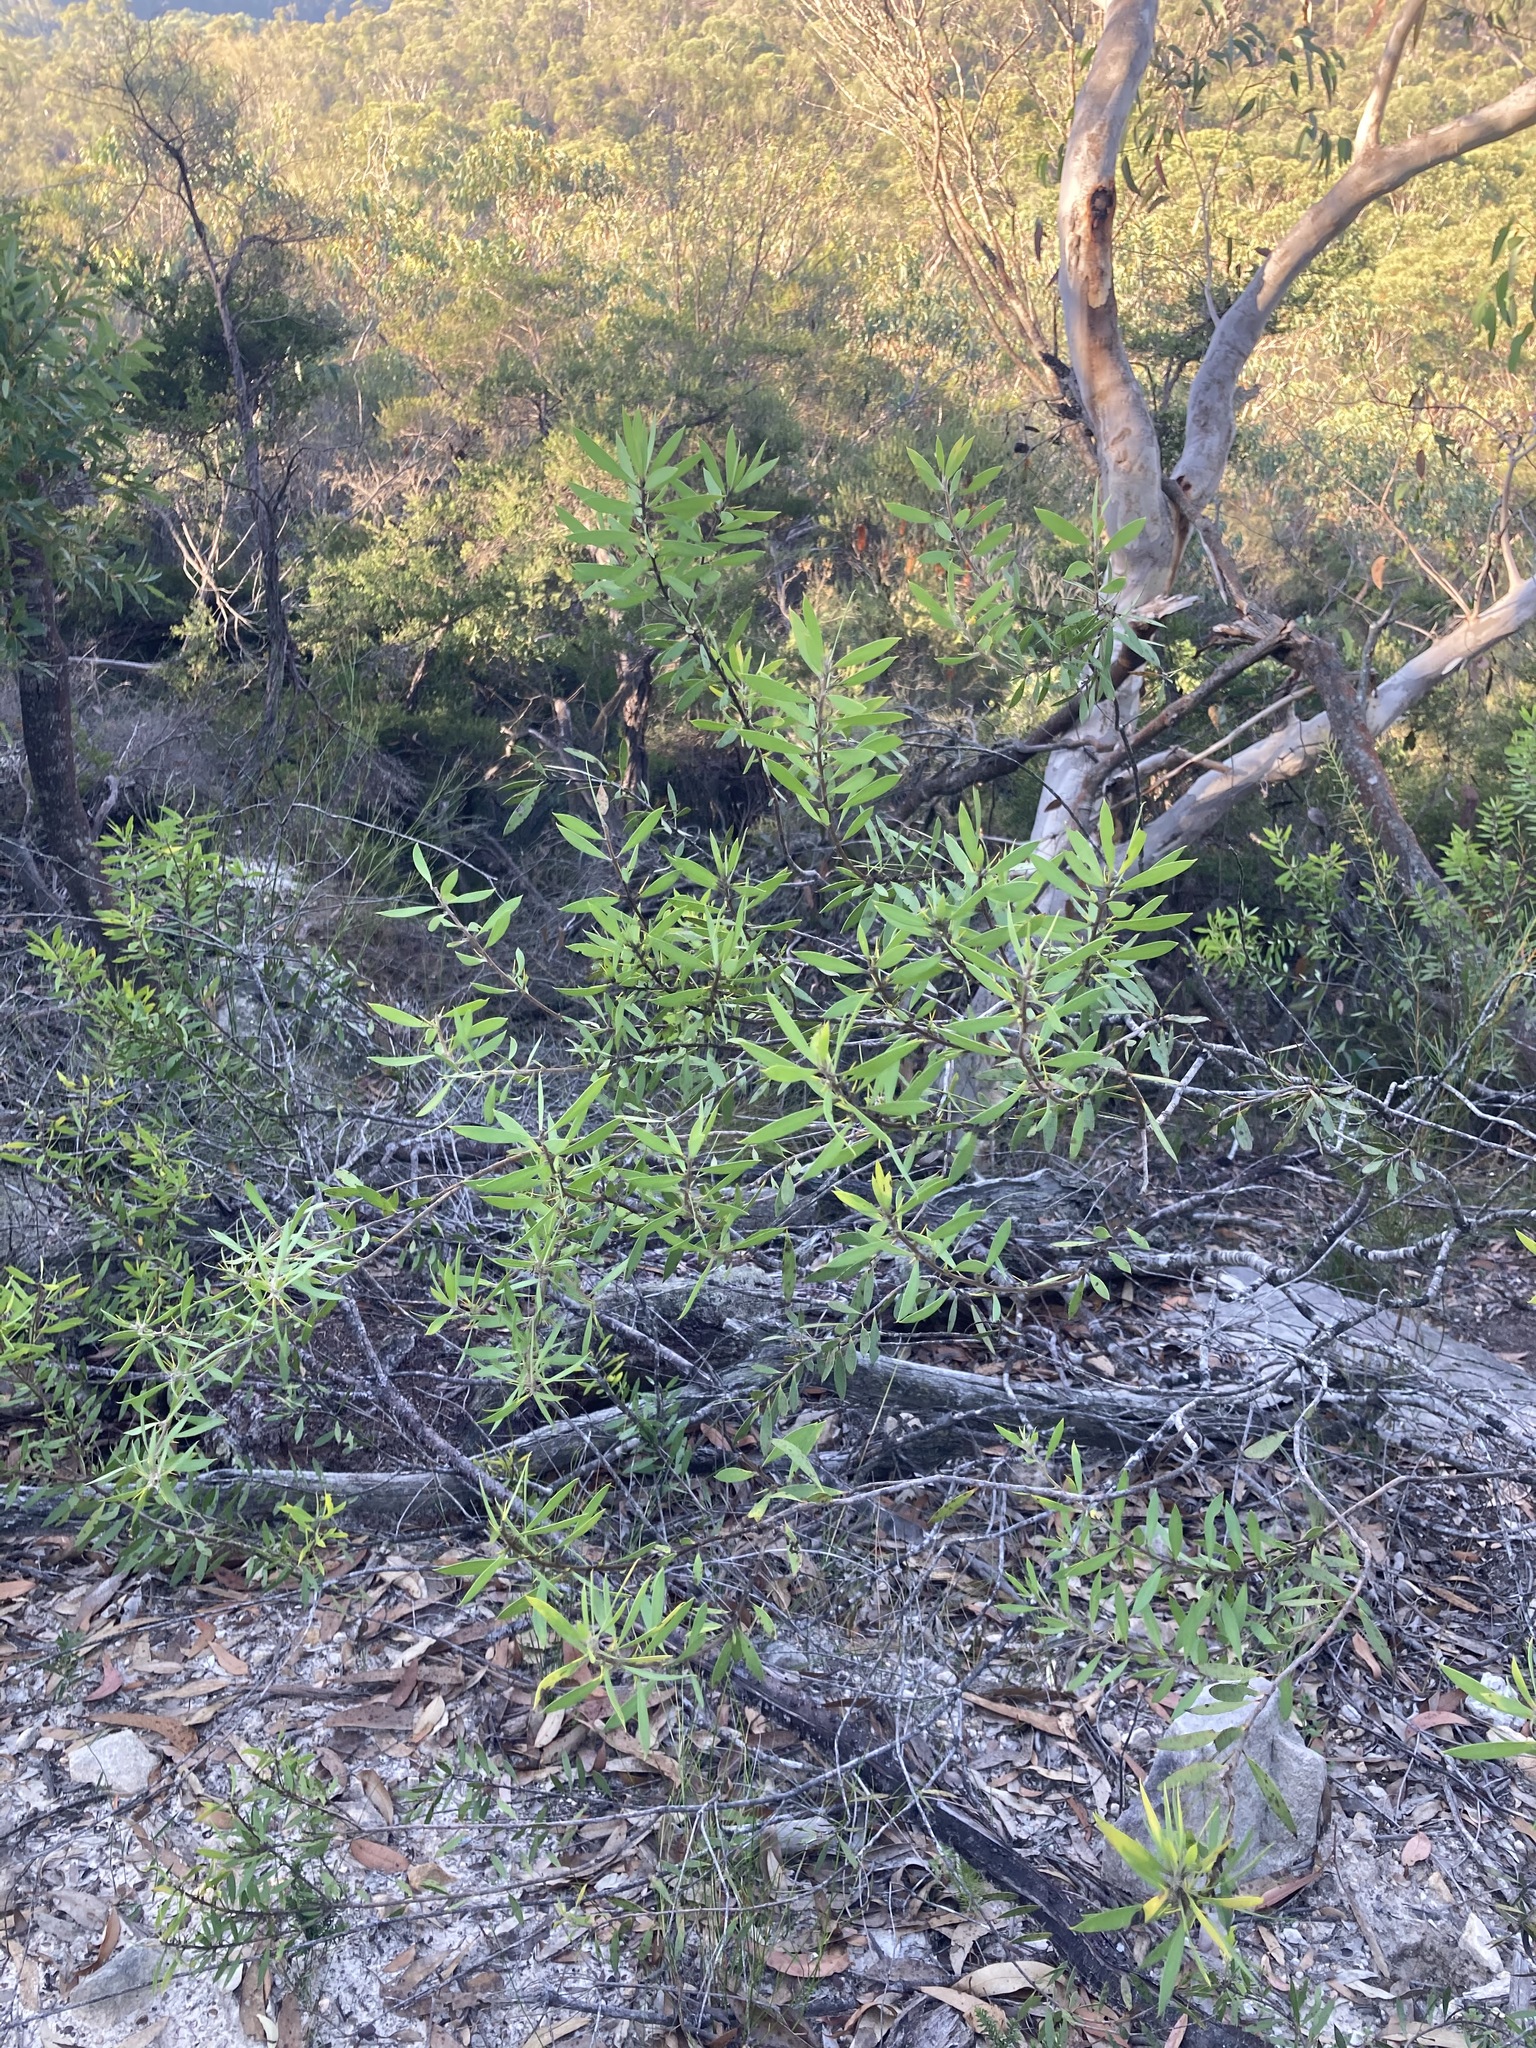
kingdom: Plantae
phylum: Tracheophyta
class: Magnoliopsida
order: Proteales
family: Proteaceae
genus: Persoonia
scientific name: Persoonia lanceolata
